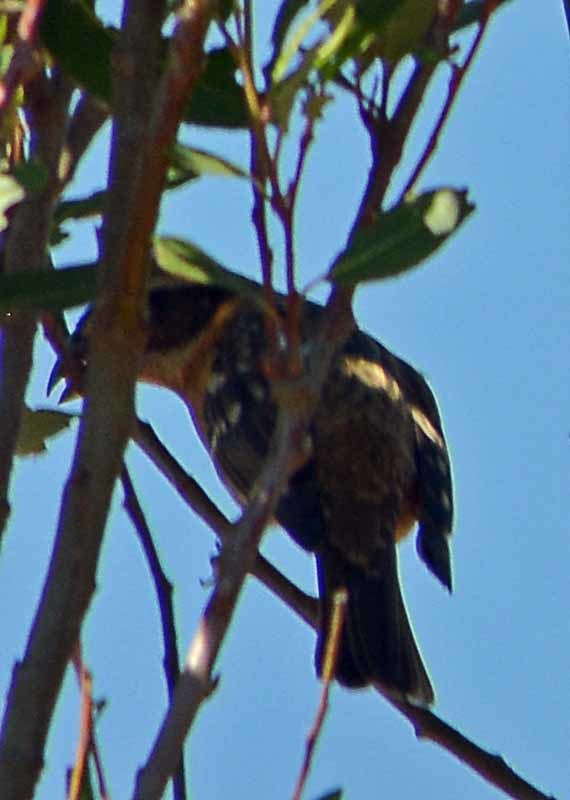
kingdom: Animalia
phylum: Chordata
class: Aves
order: Passeriformes
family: Cardinalidae
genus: Pheucticus
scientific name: Pheucticus melanocephalus
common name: Black-headed grosbeak
